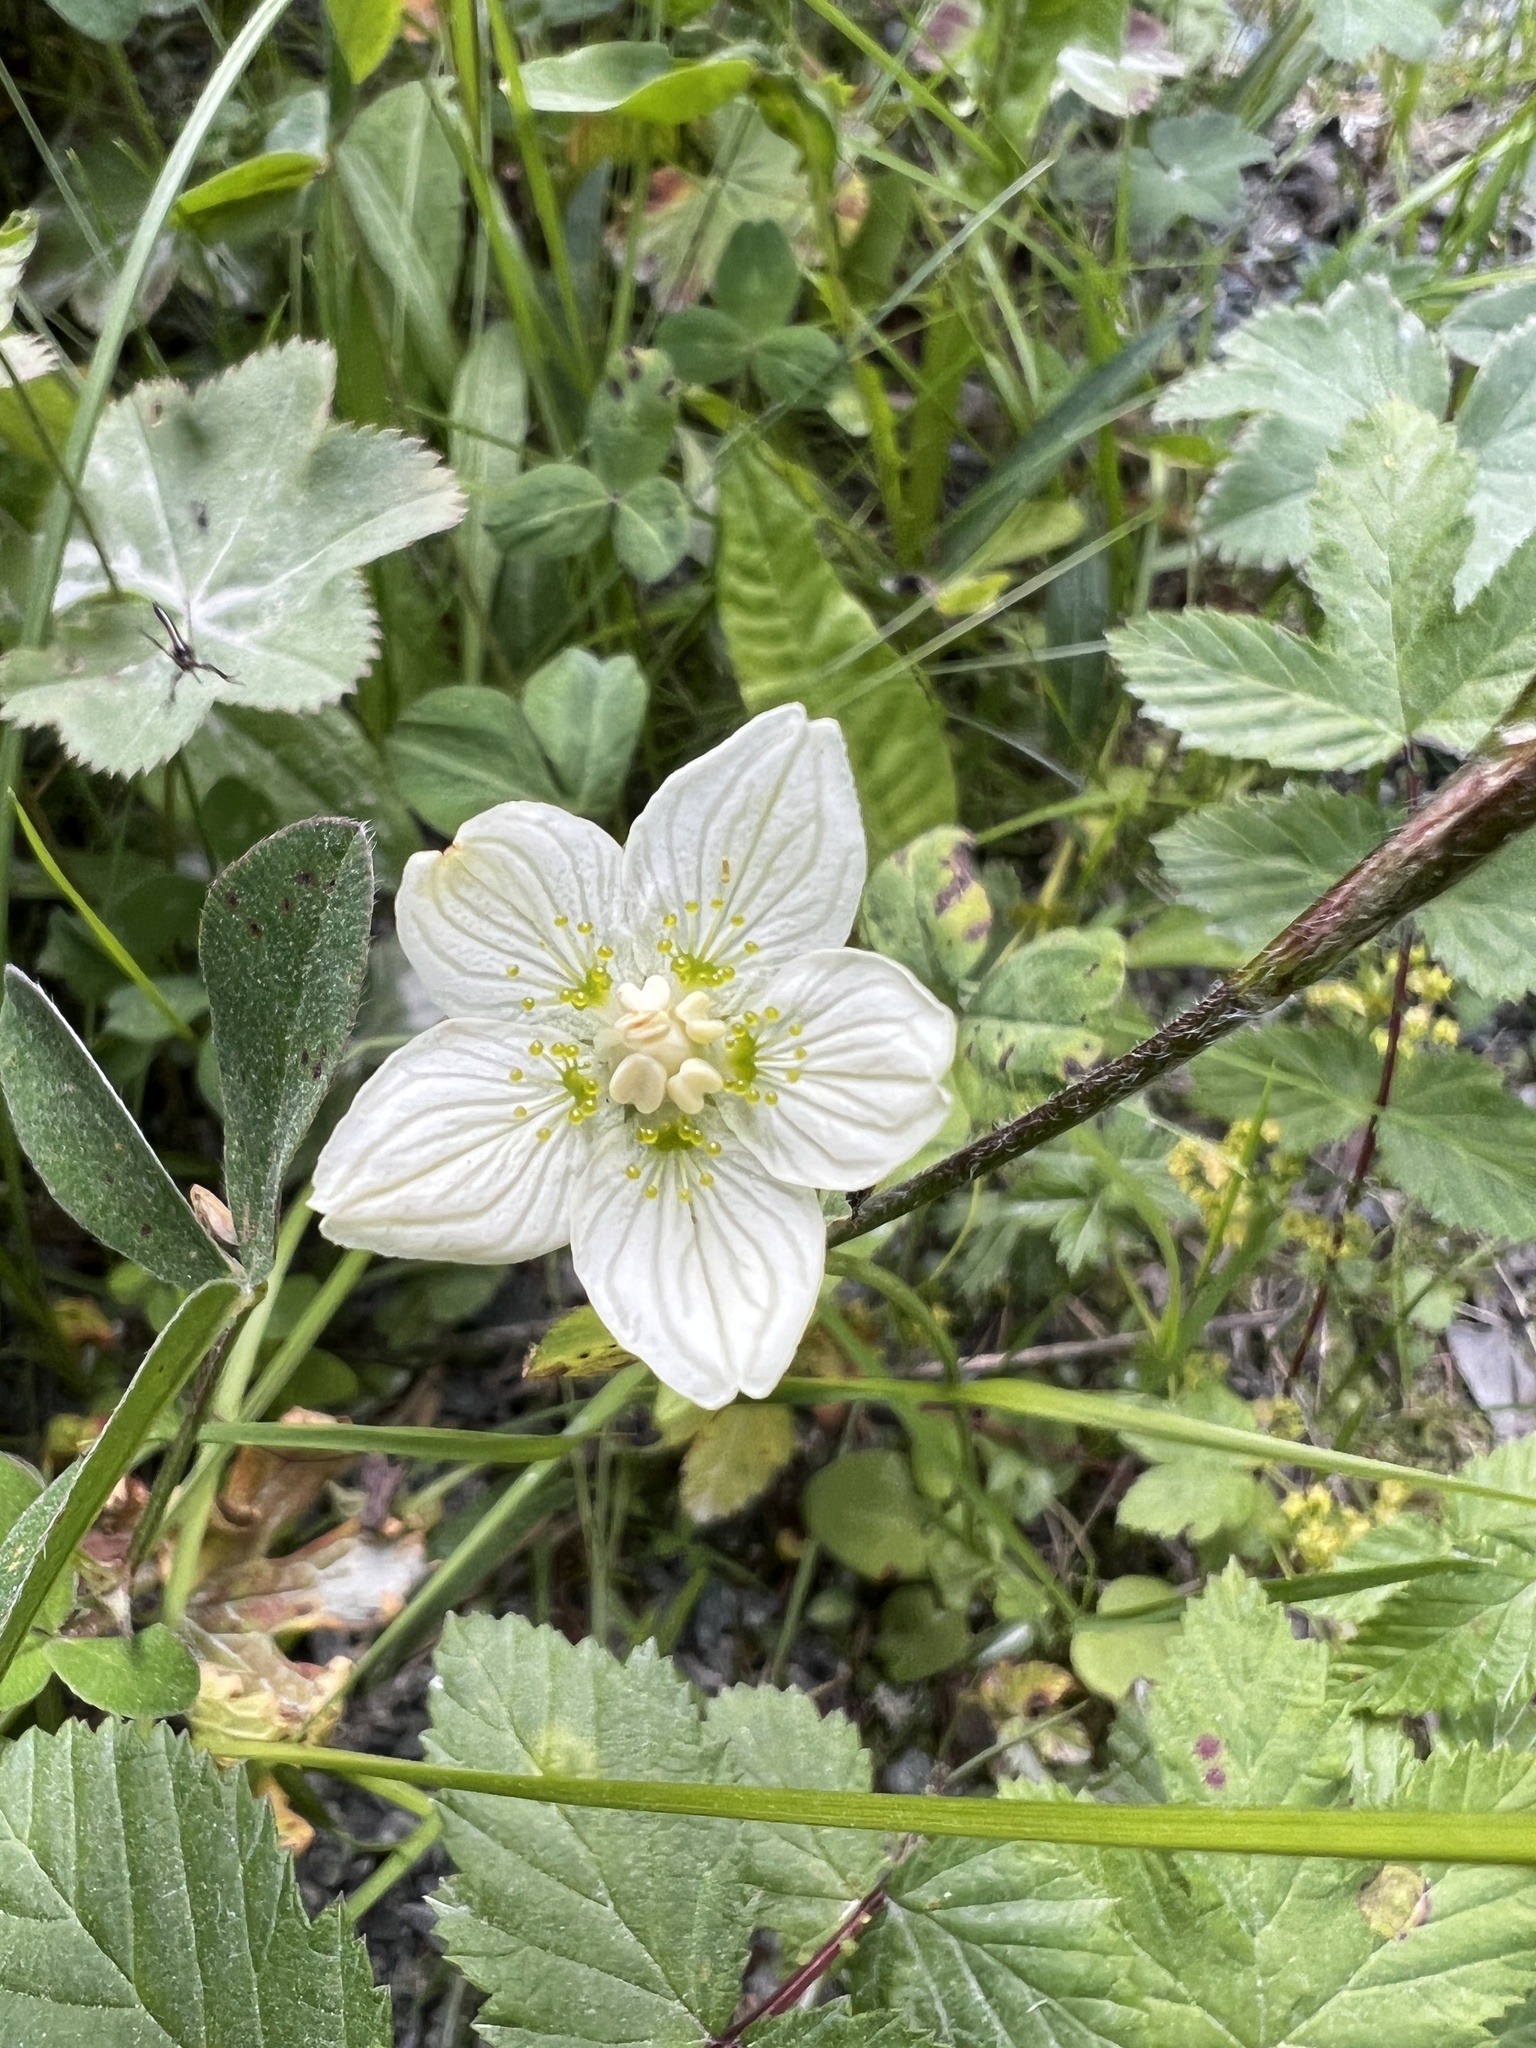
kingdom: Plantae
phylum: Tracheophyta
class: Magnoliopsida
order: Celastrales
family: Parnassiaceae
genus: Parnassia
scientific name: Parnassia palustris
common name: Grass-of-parnassus
